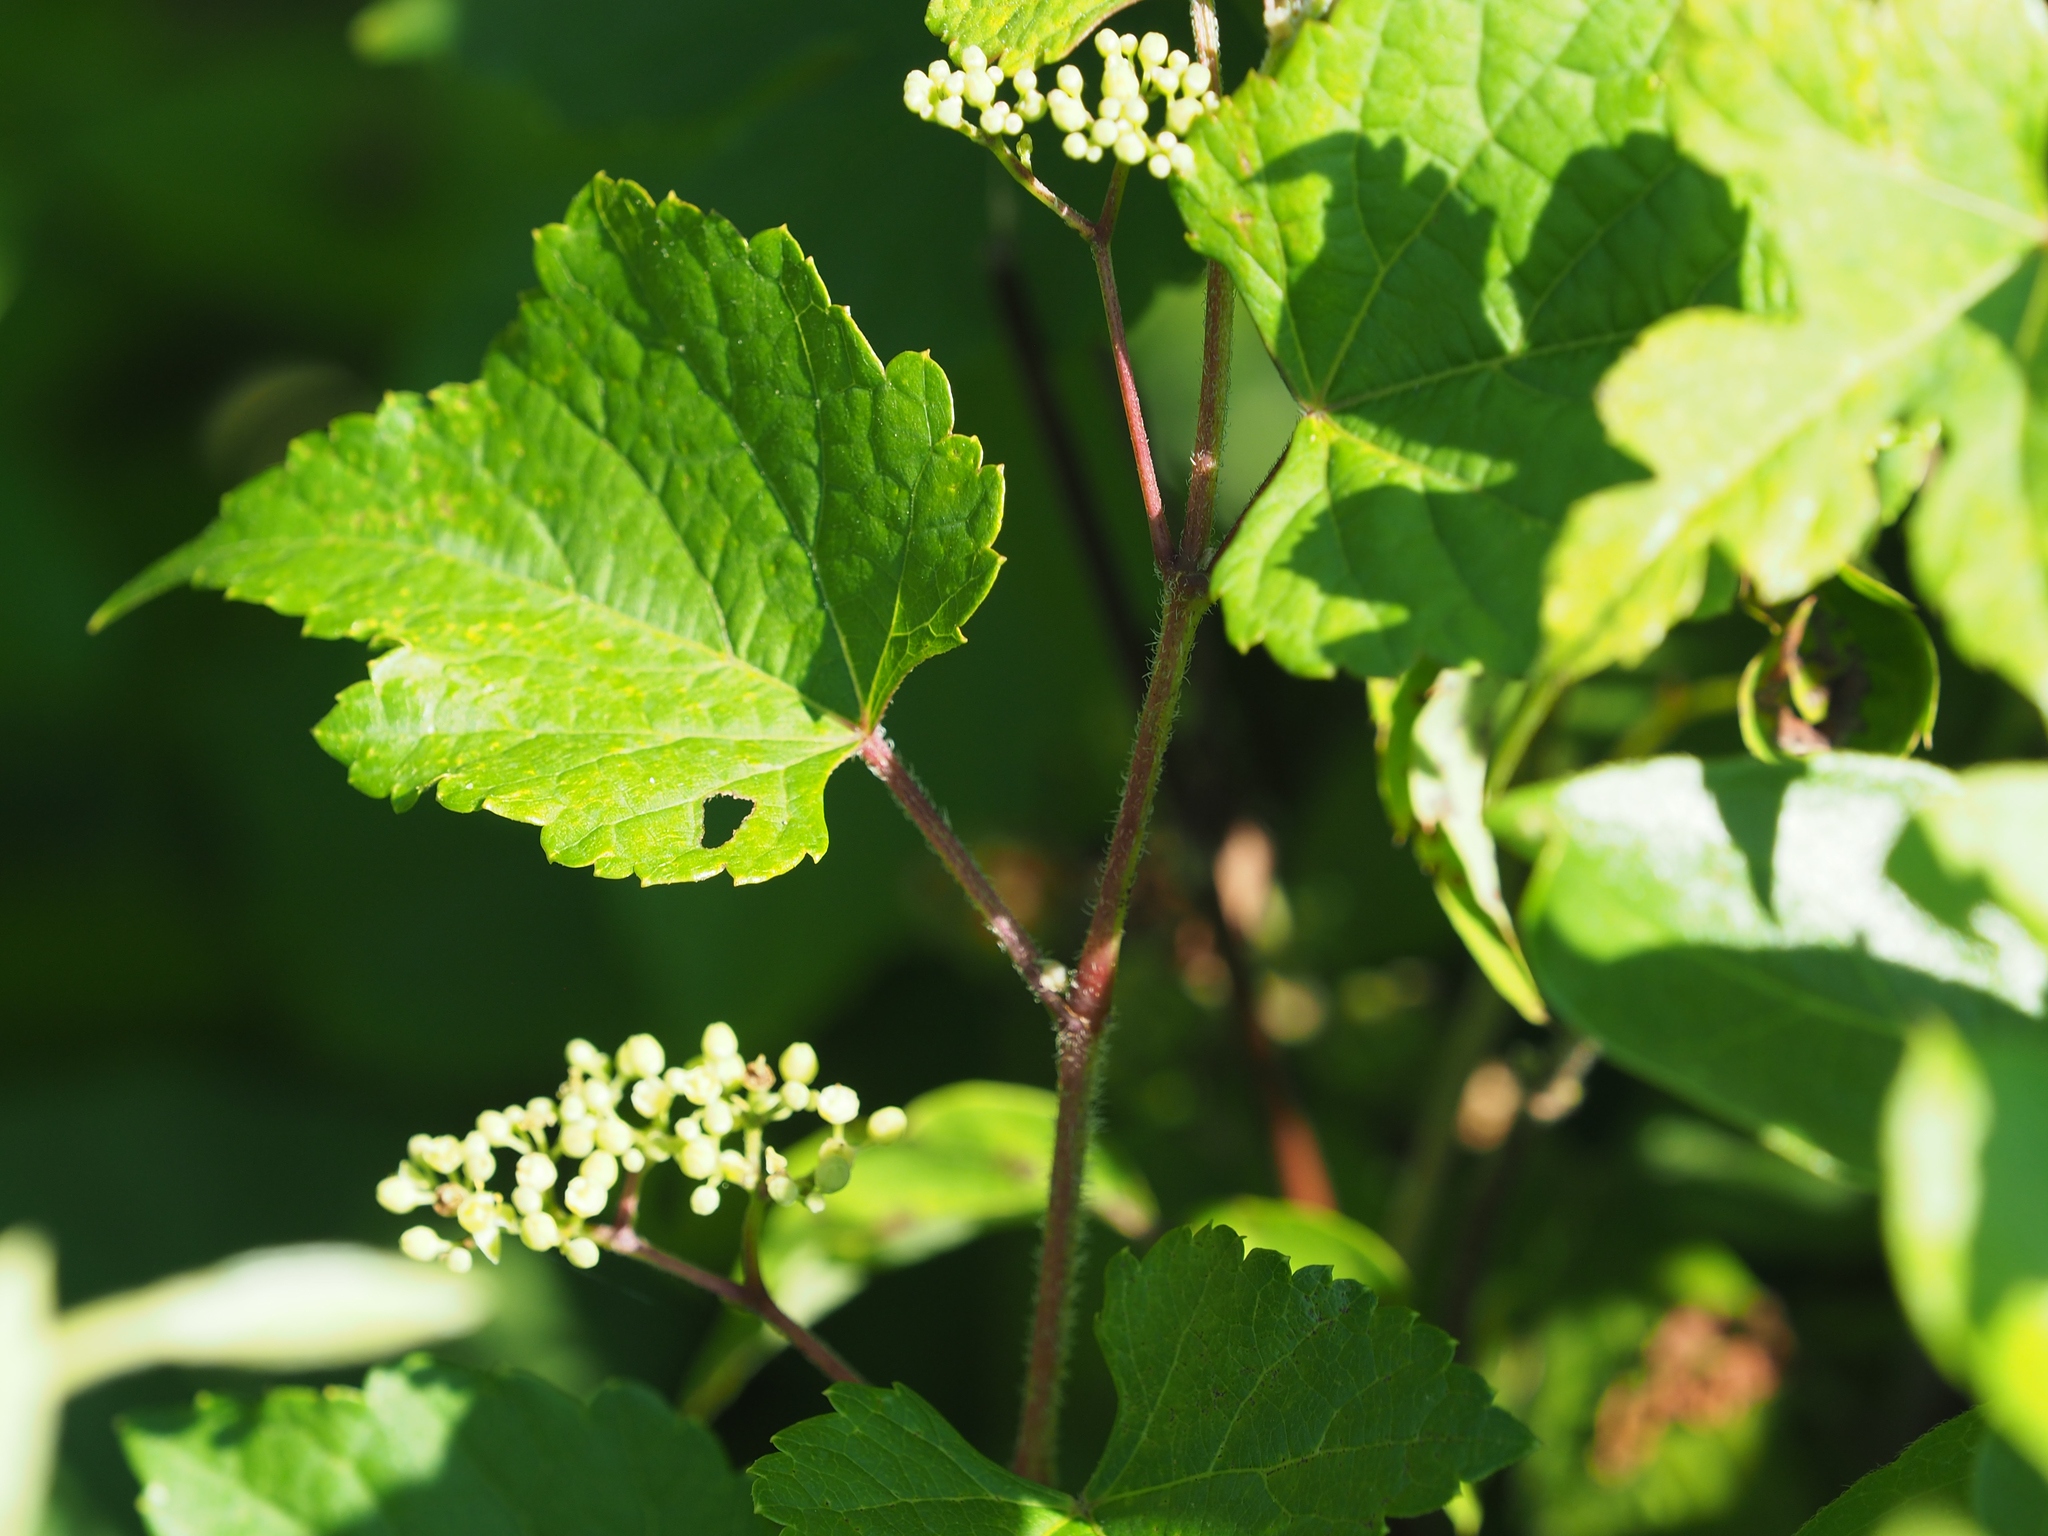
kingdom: Plantae
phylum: Tracheophyta
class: Magnoliopsida
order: Vitales
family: Vitaceae
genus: Ampelopsis
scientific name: Ampelopsis glandulosa
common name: Amur peppervine
